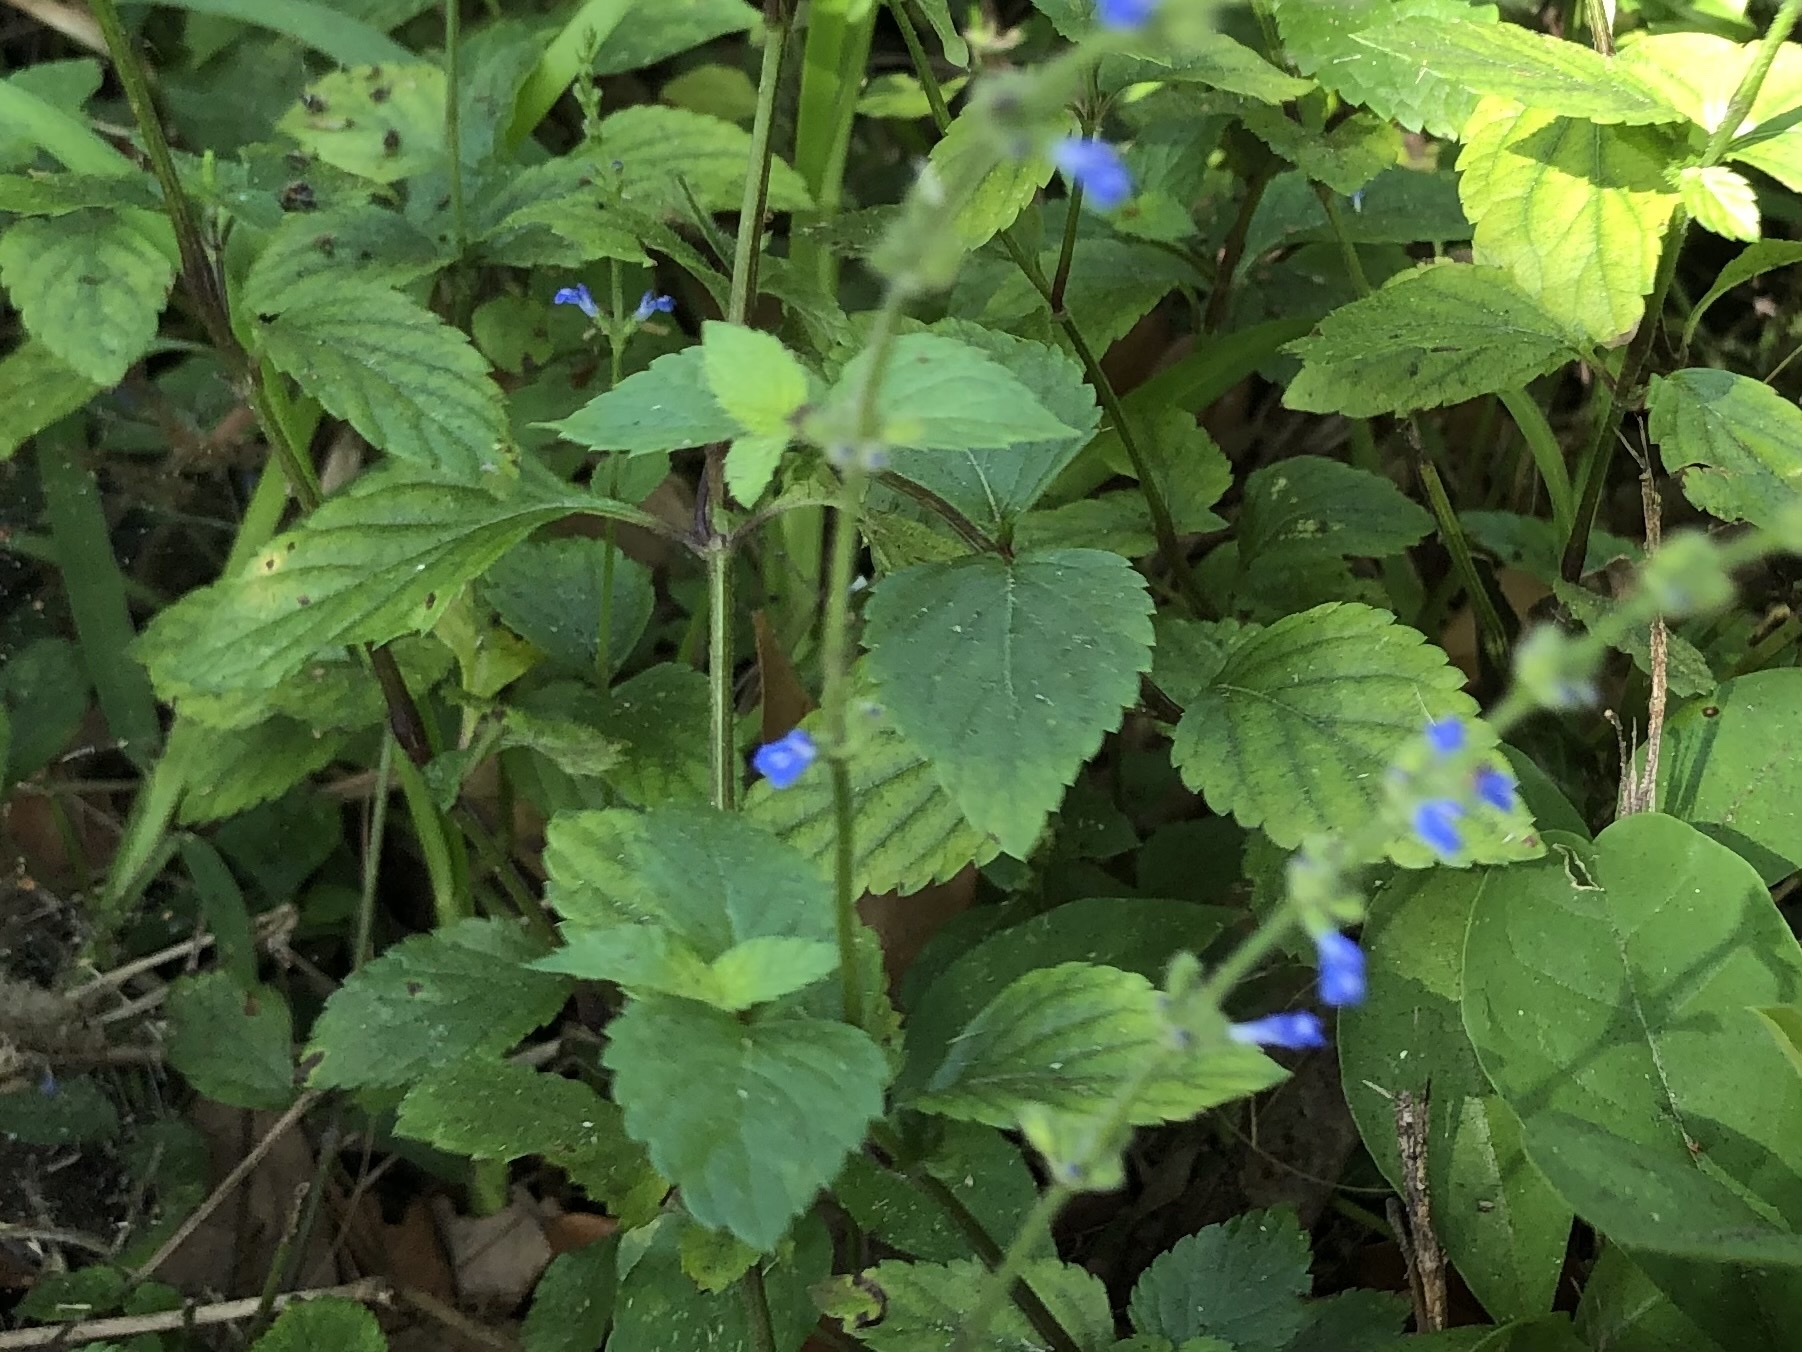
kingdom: Plantae
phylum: Tracheophyta
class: Magnoliopsida
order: Lamiales
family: Lamiaceae
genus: Salvia
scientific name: Salvia occidentalis
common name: West indian sage
